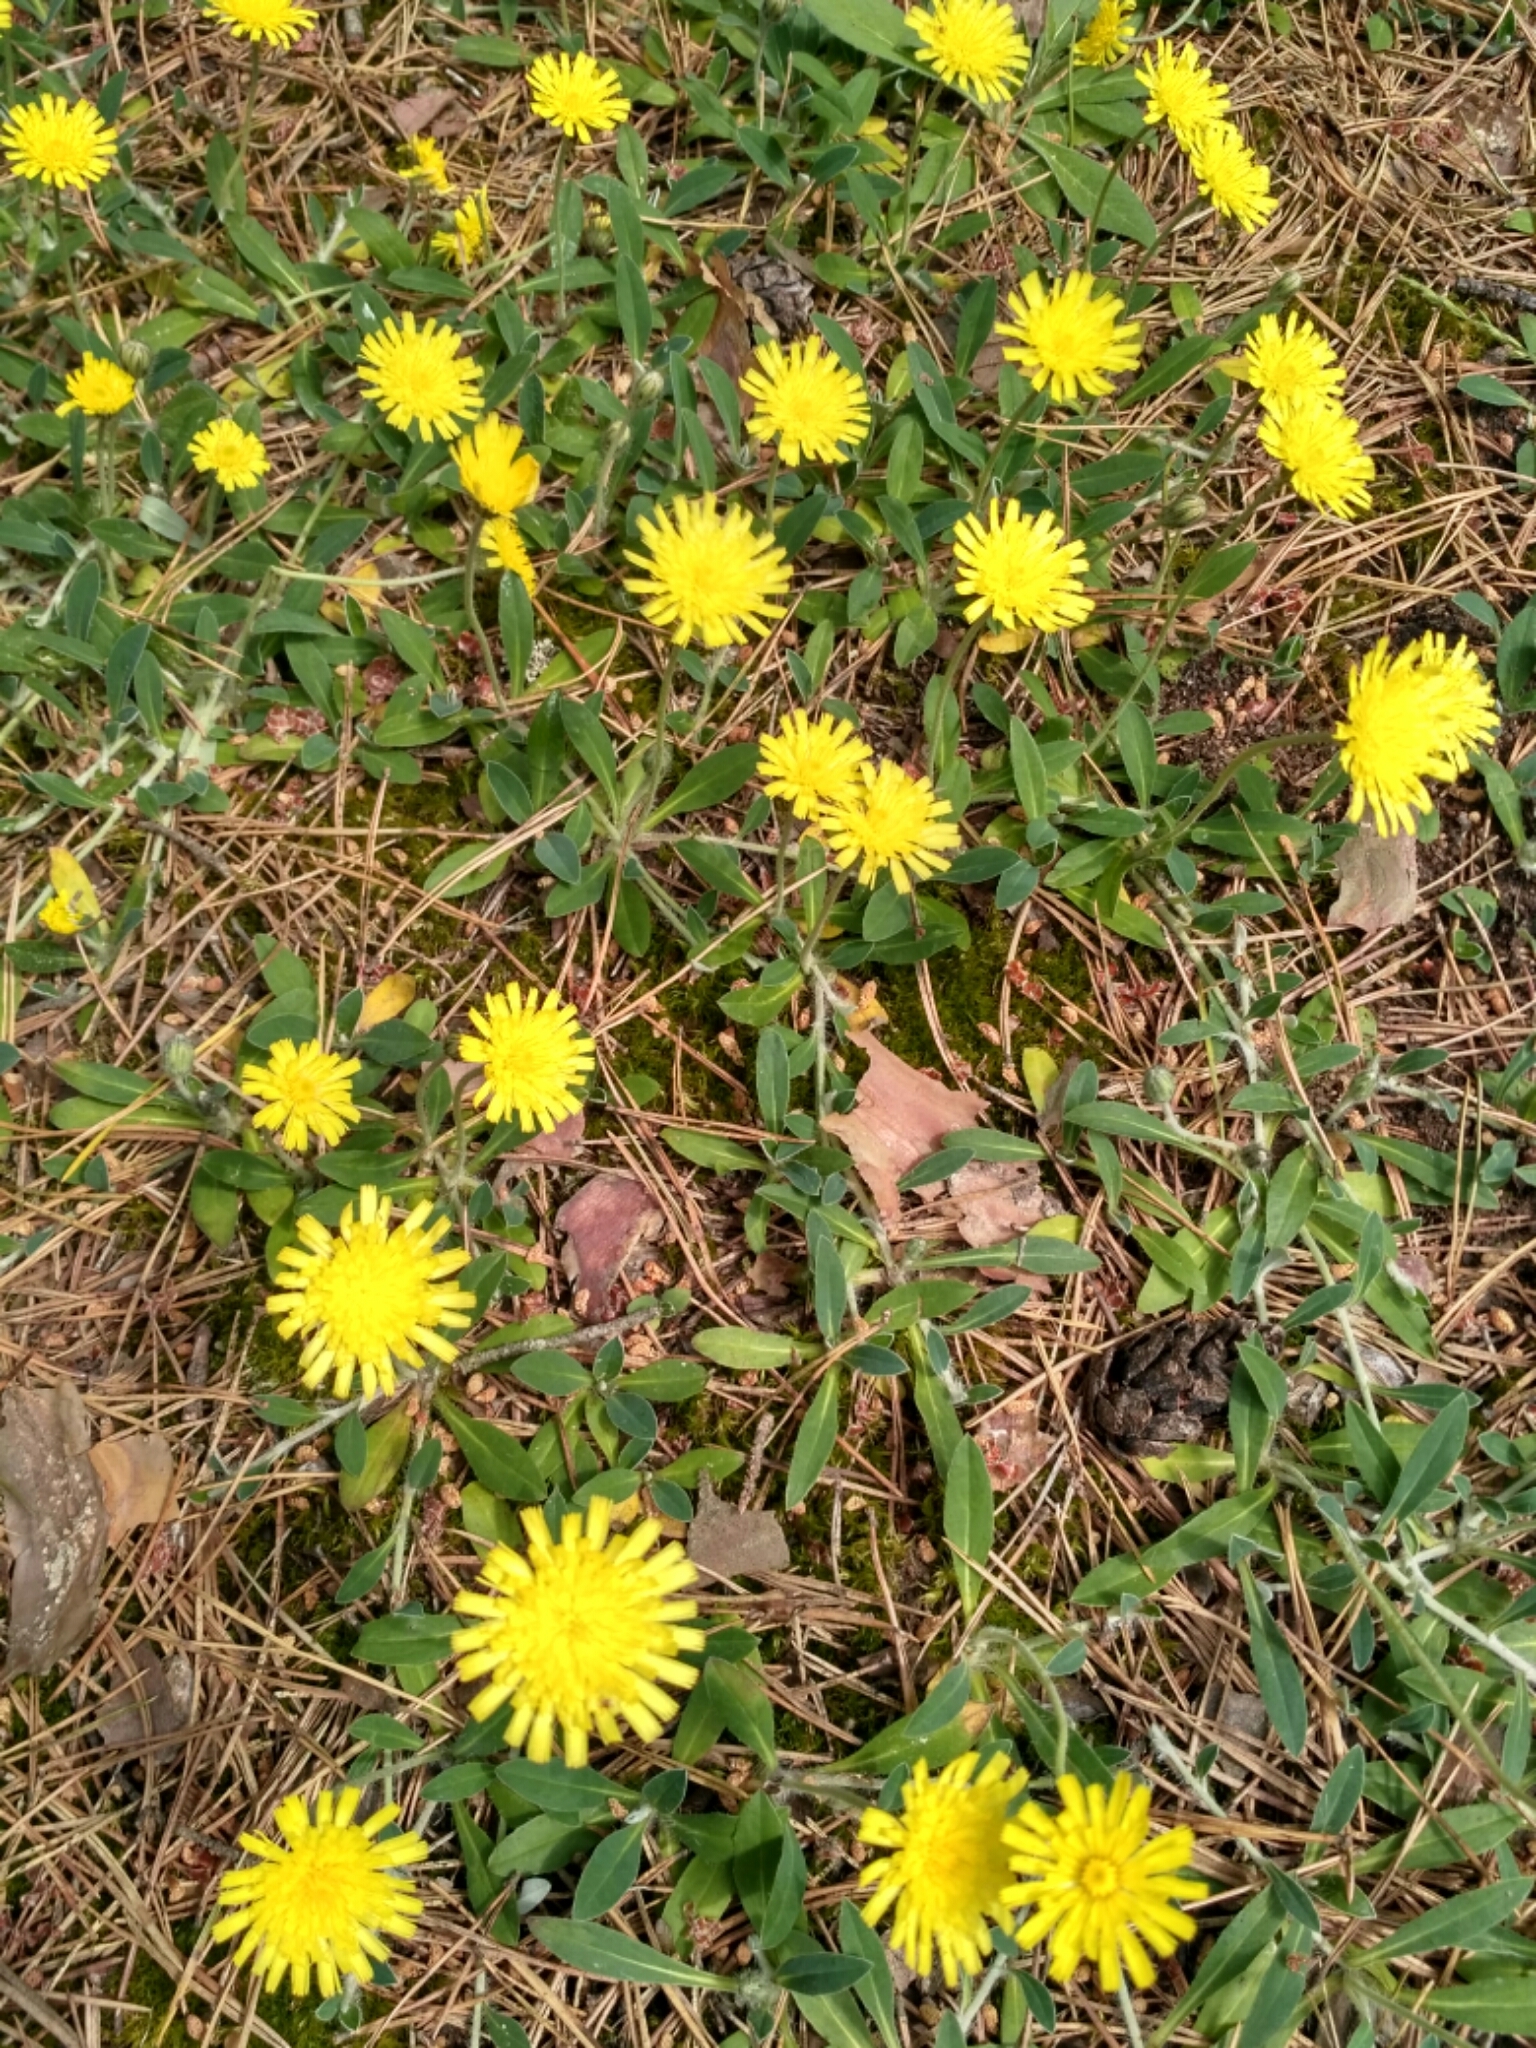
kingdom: Plantae
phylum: Tracheophyta
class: Magnoliopsida
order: Asterales
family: Asteraceae
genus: Pilosella
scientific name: Pilosella officinarum
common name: Mouse-ear hawkweed
